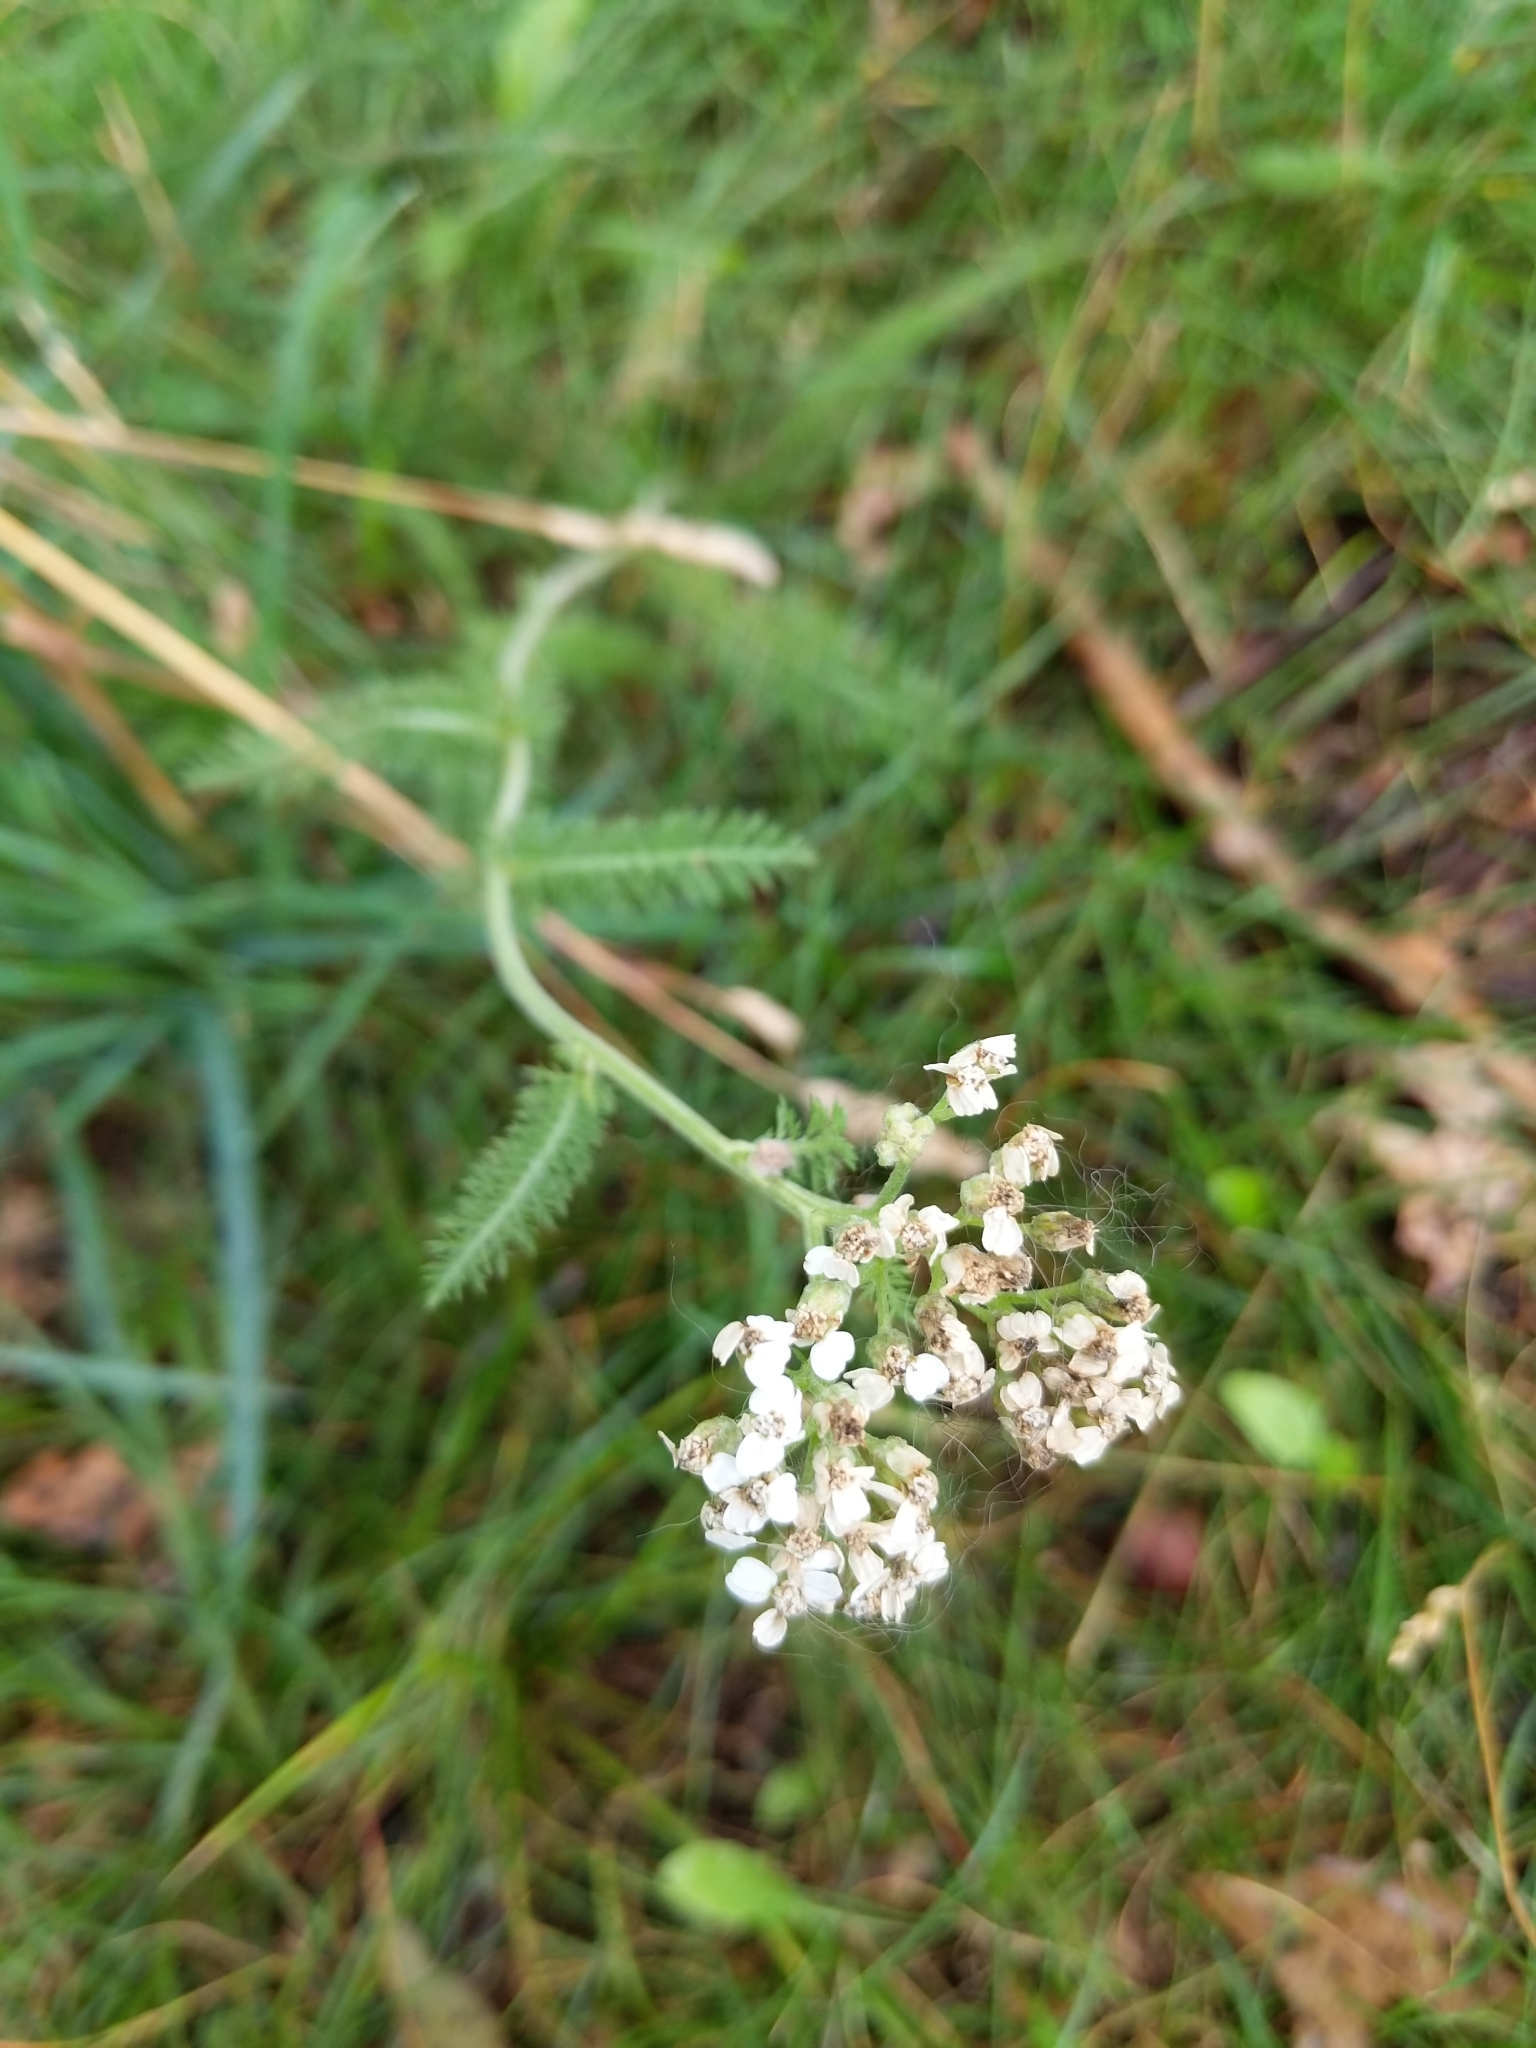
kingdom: Plantae
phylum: Tracheophyta
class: Magnoliopsida
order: Asterales
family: Asteraceae
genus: Achillea
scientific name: Achillea millefolium
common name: Yarrow
